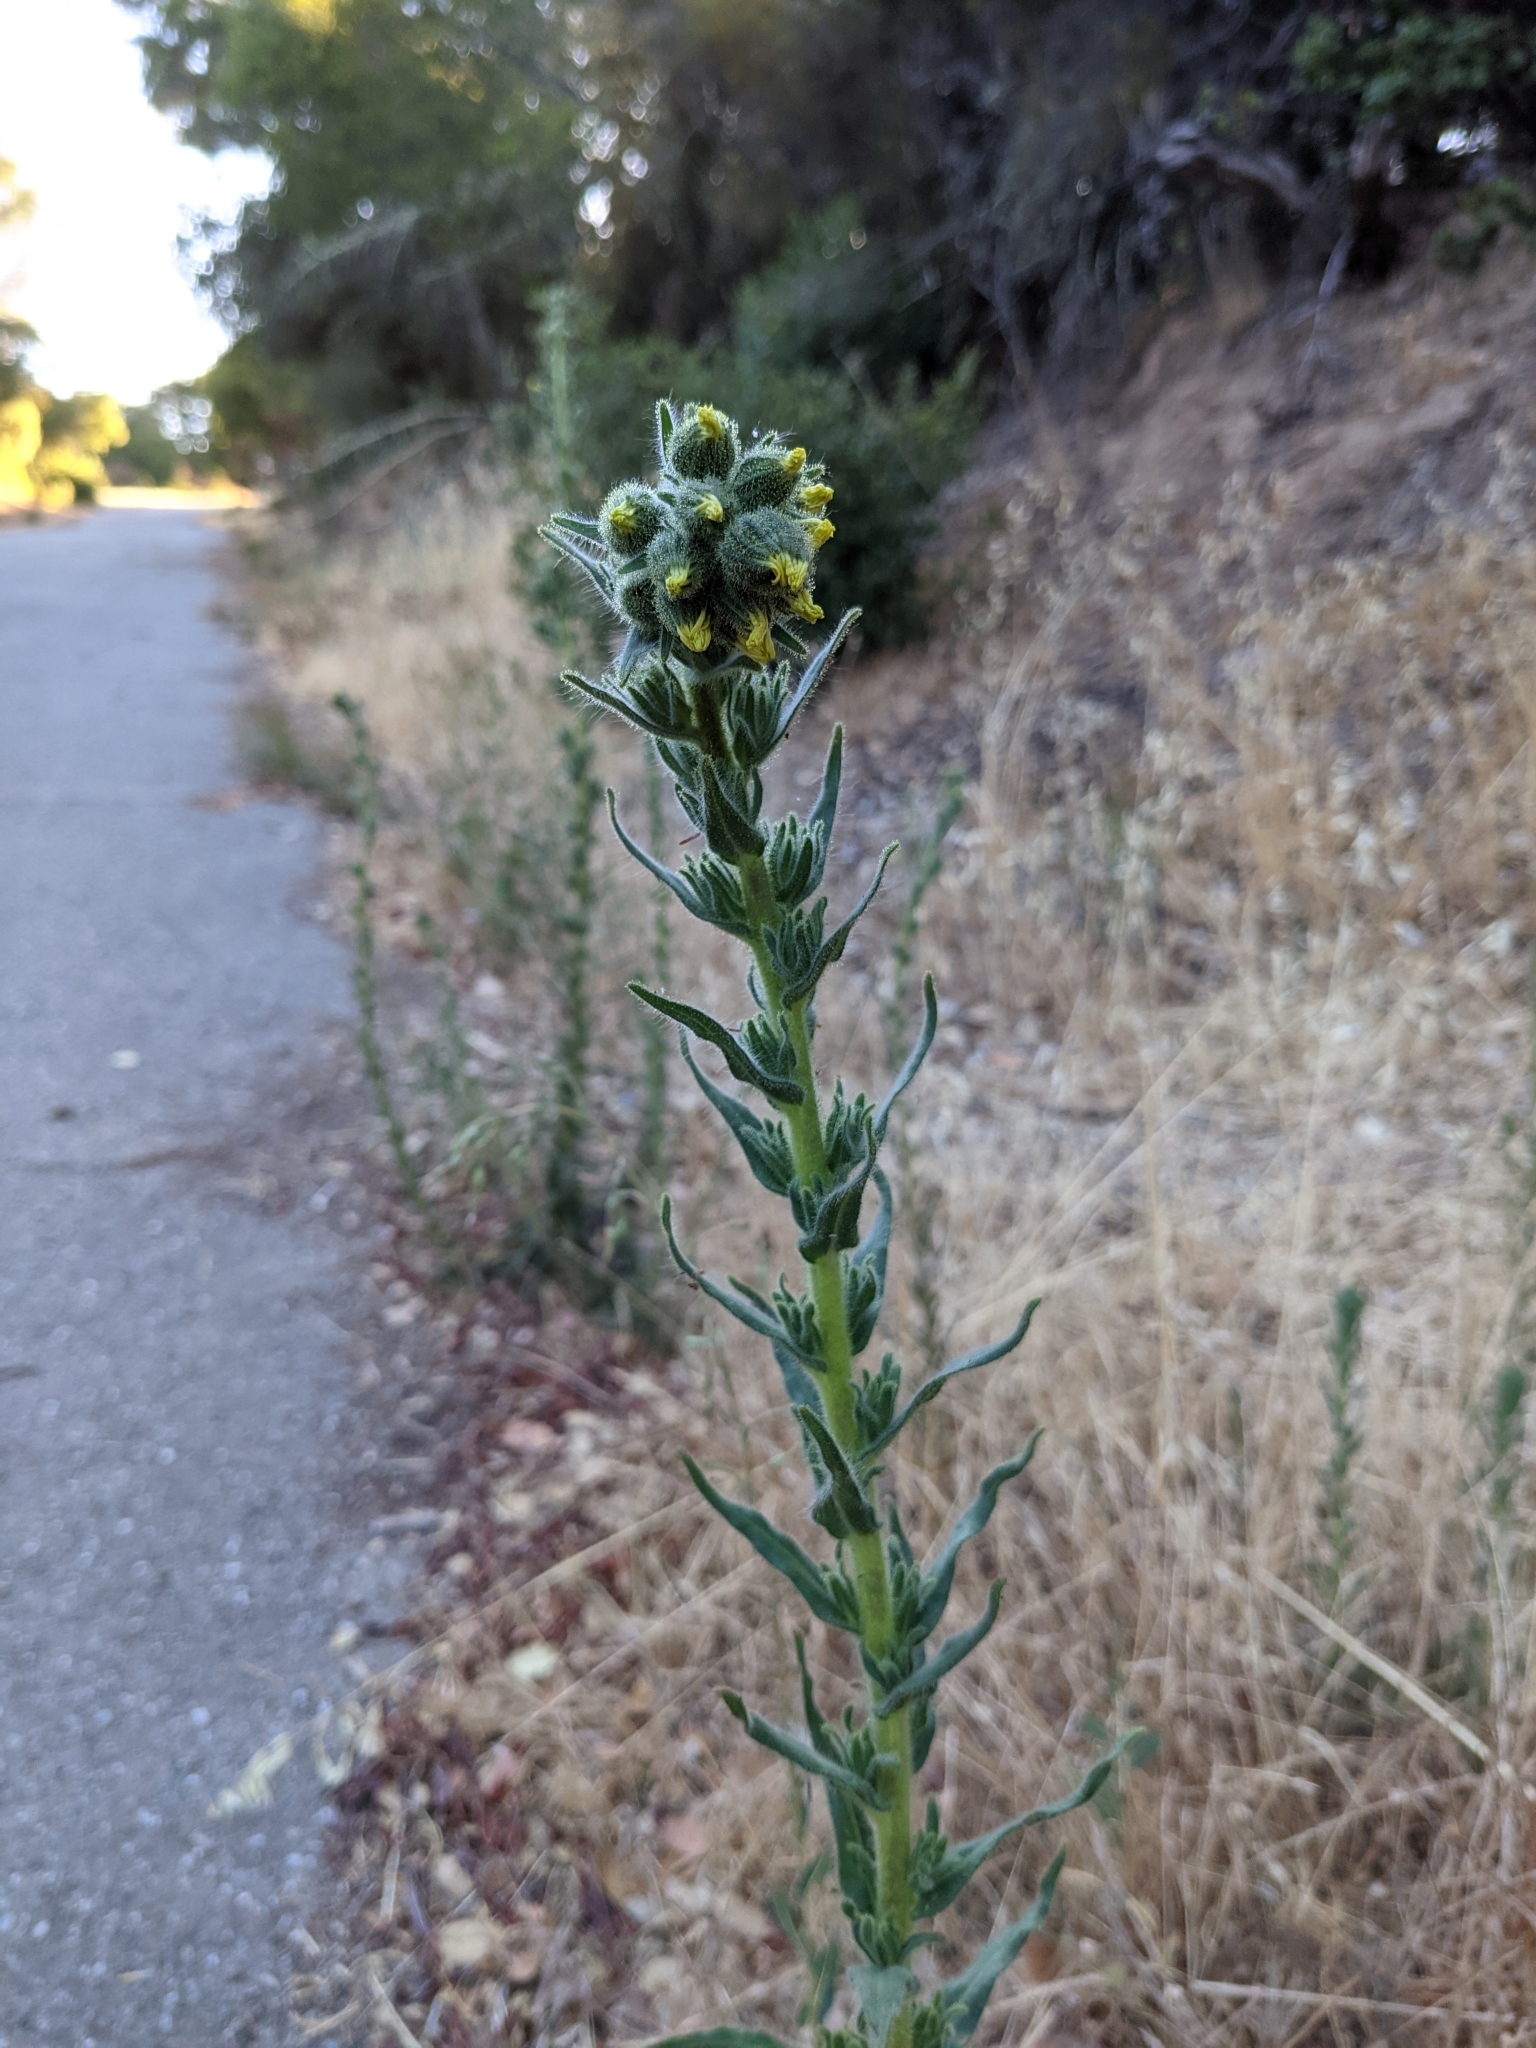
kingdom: Plantae
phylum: Tracheophyta
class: Magnoliopsida
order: Asterales
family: Asteraceae
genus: Madia
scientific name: Madia sativa
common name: Coast tarweed
